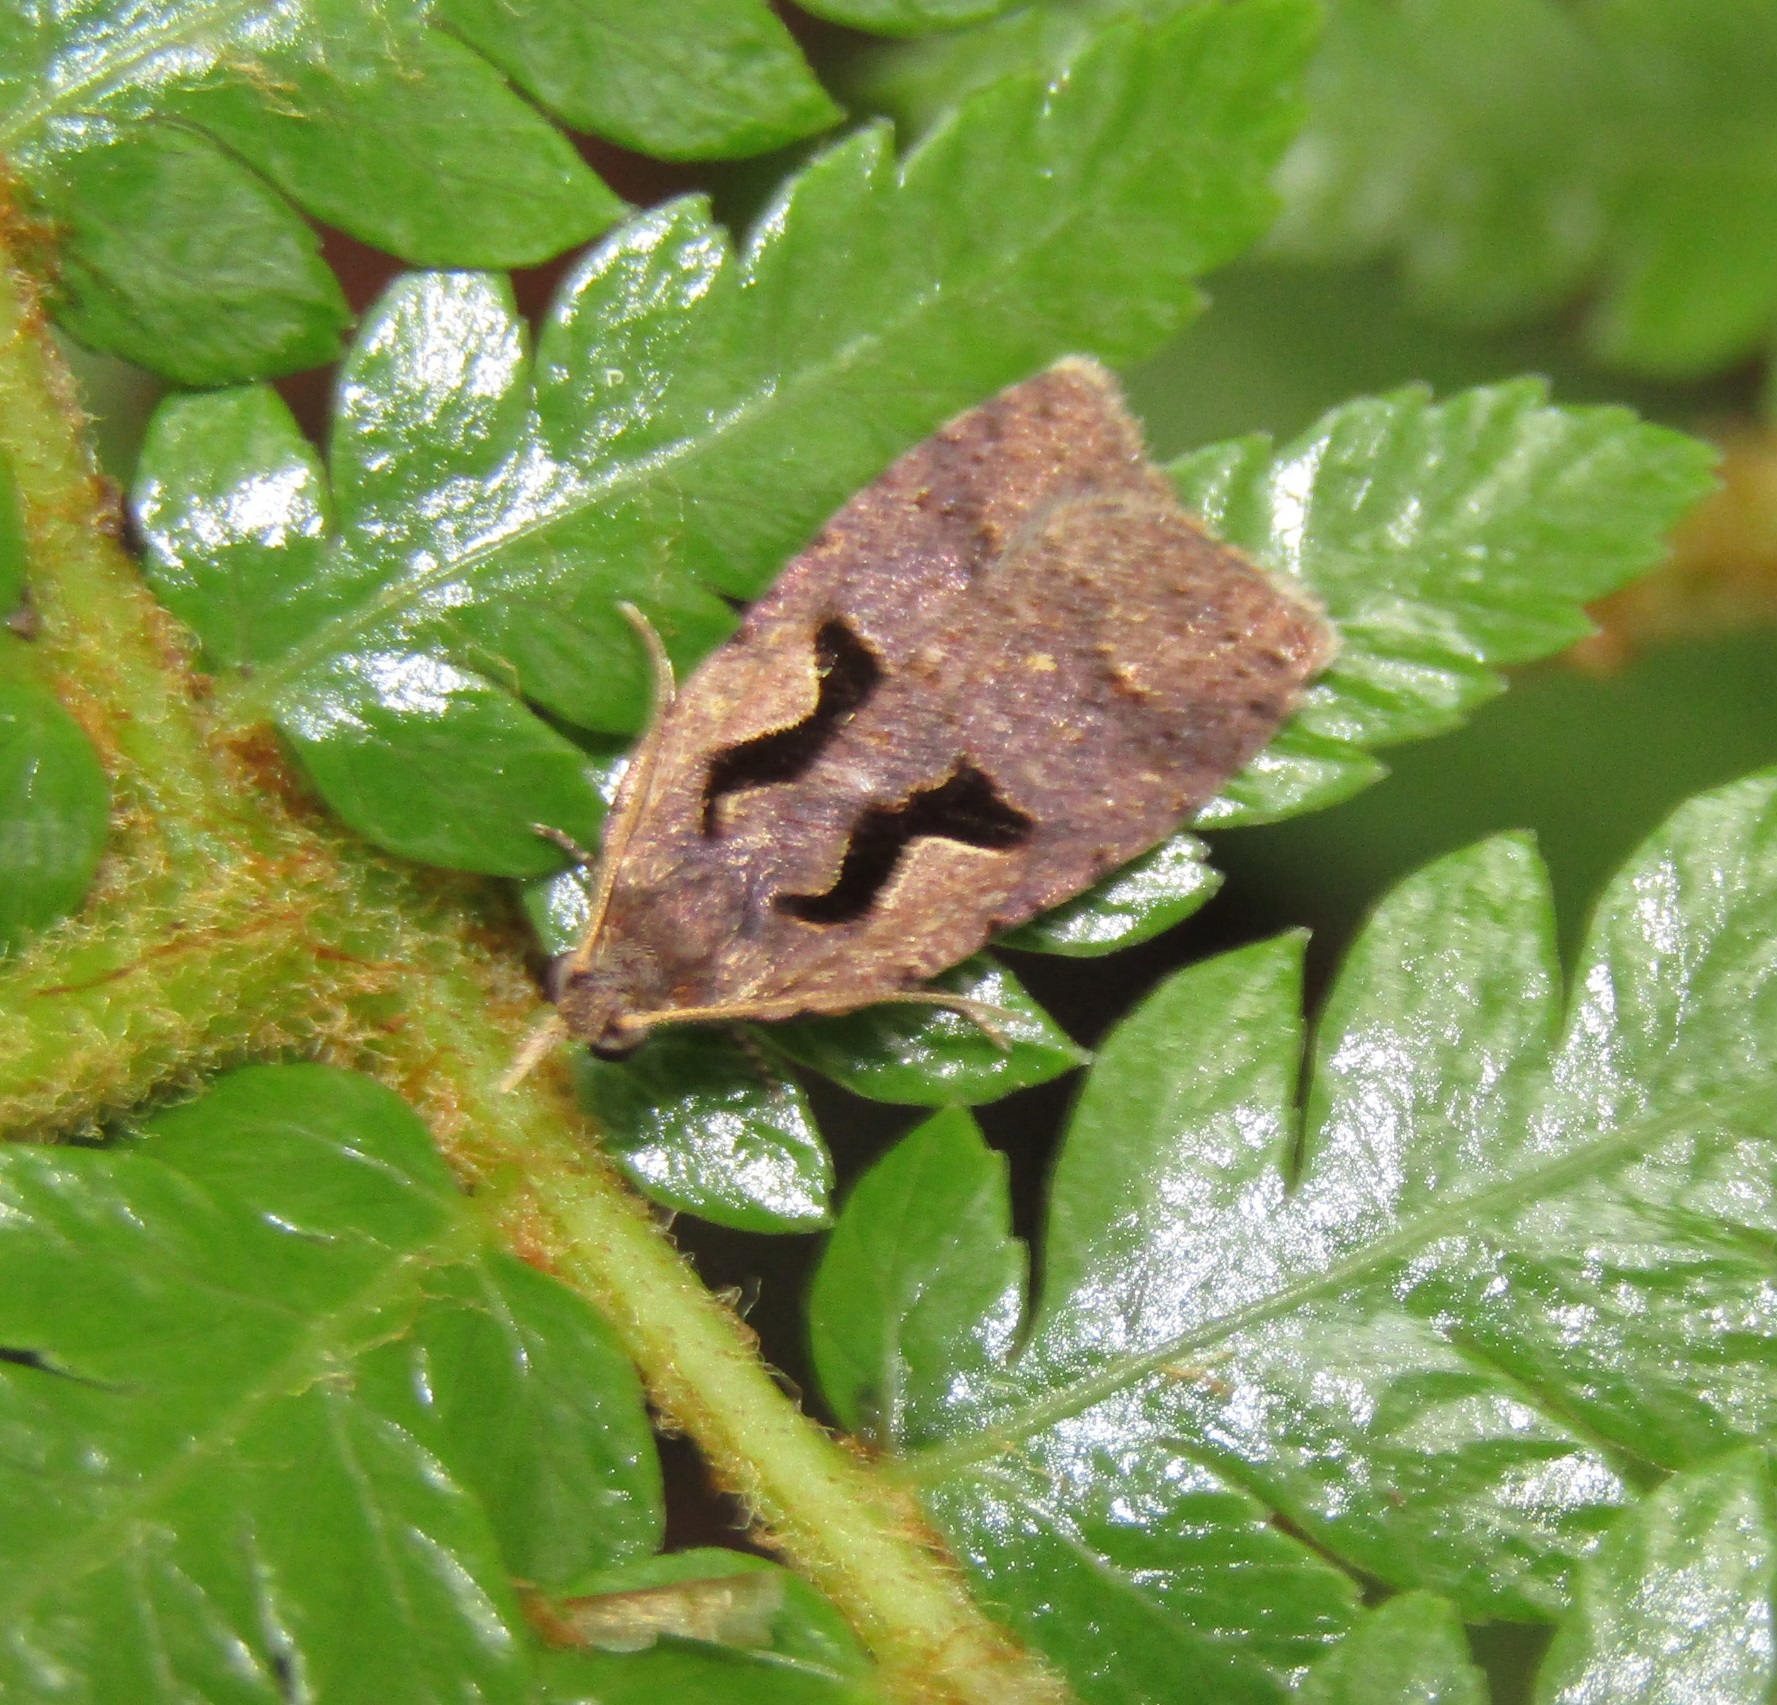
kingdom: Animalia
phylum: Arthropoda
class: Insecta
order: Lepidoptera
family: Tortricidae
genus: Cnephasia
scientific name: Cnephasia jactatana
